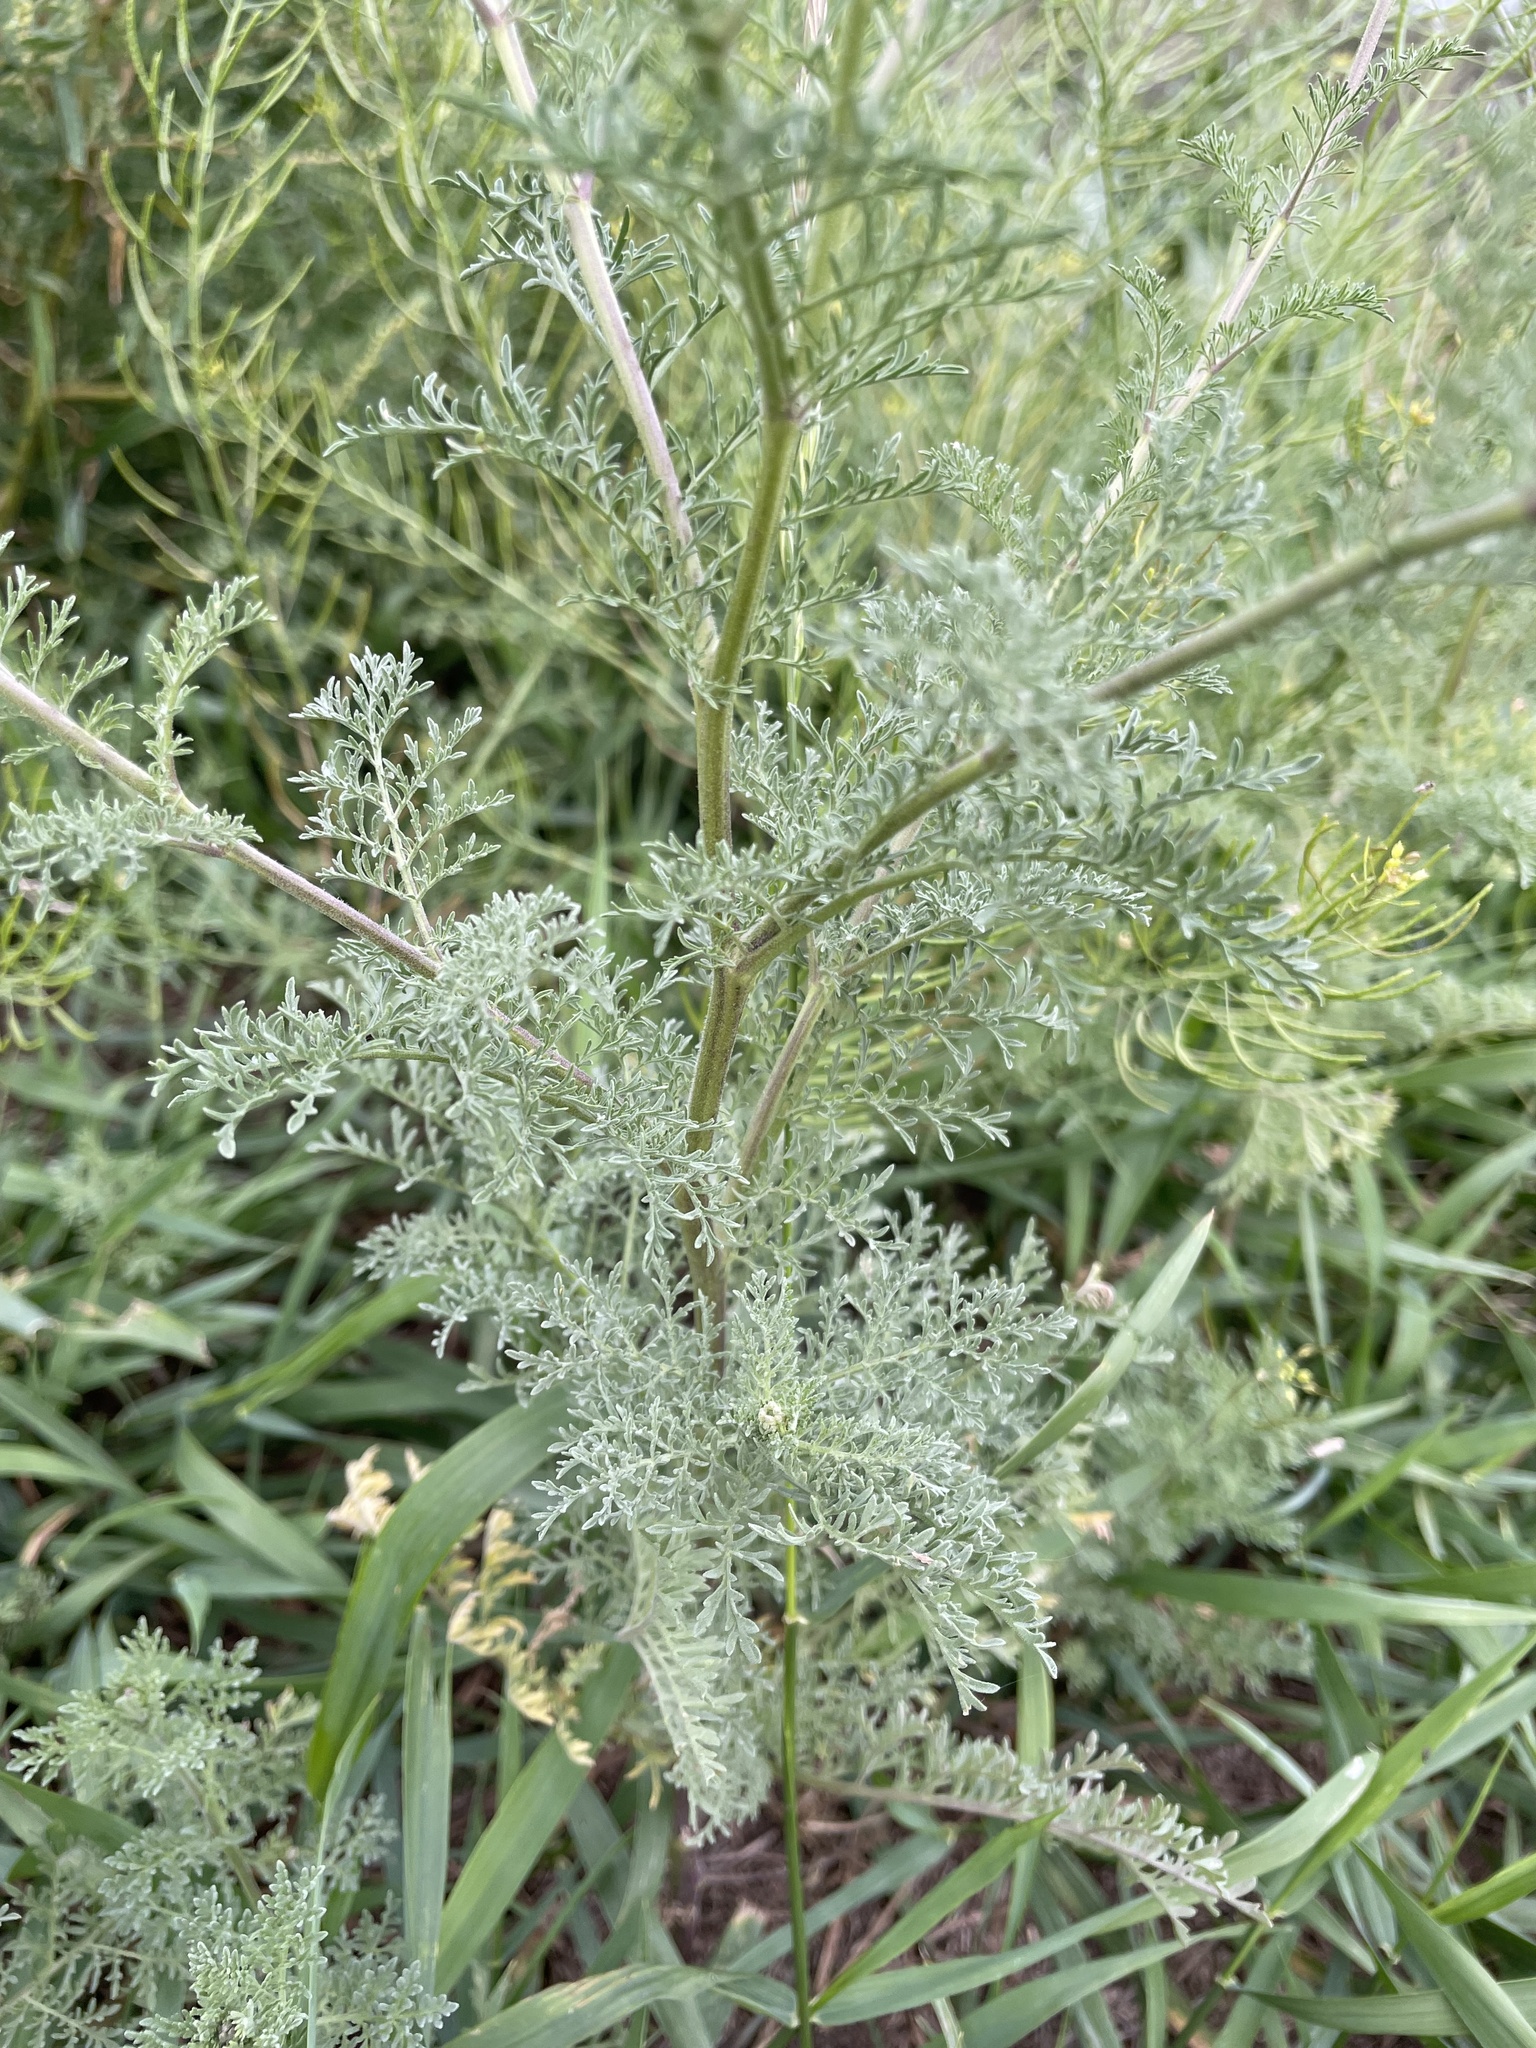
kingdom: Plantae
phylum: Tracheophyta
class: Magnoliopsida
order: Brassicales
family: Brassicaceae
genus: Descurainia
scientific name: Descurainia sophia
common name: Flixweed
